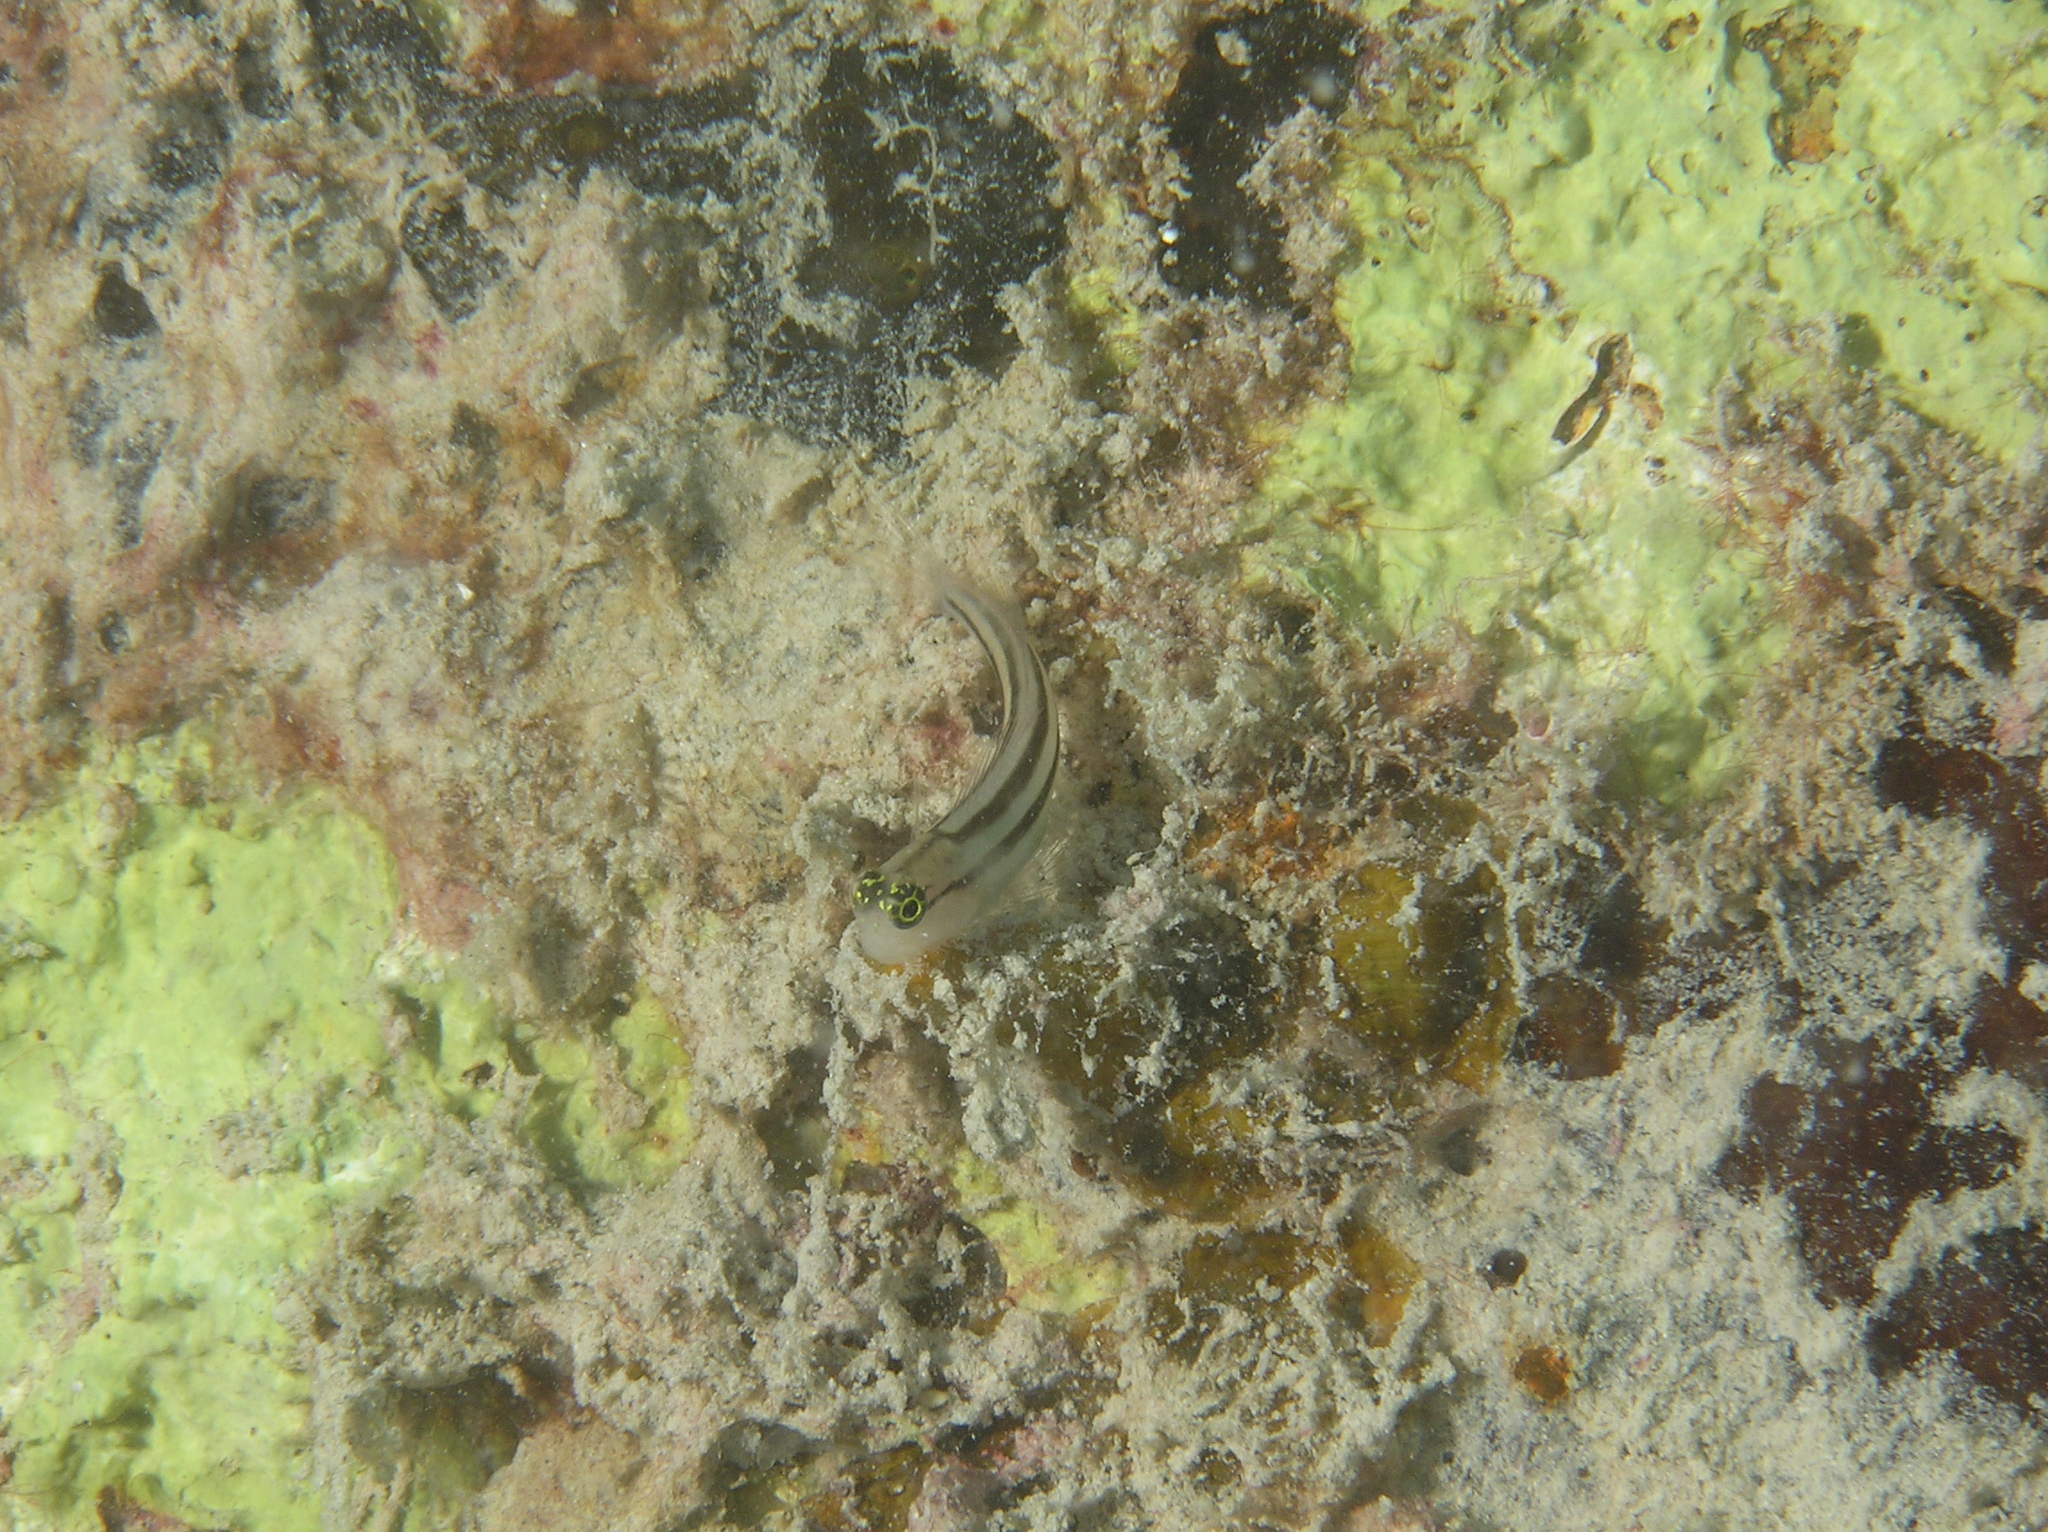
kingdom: Animalia
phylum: Chordata
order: Perciformes
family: Blenniidae
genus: Ecsenius
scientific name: Ecsenius prooculis
